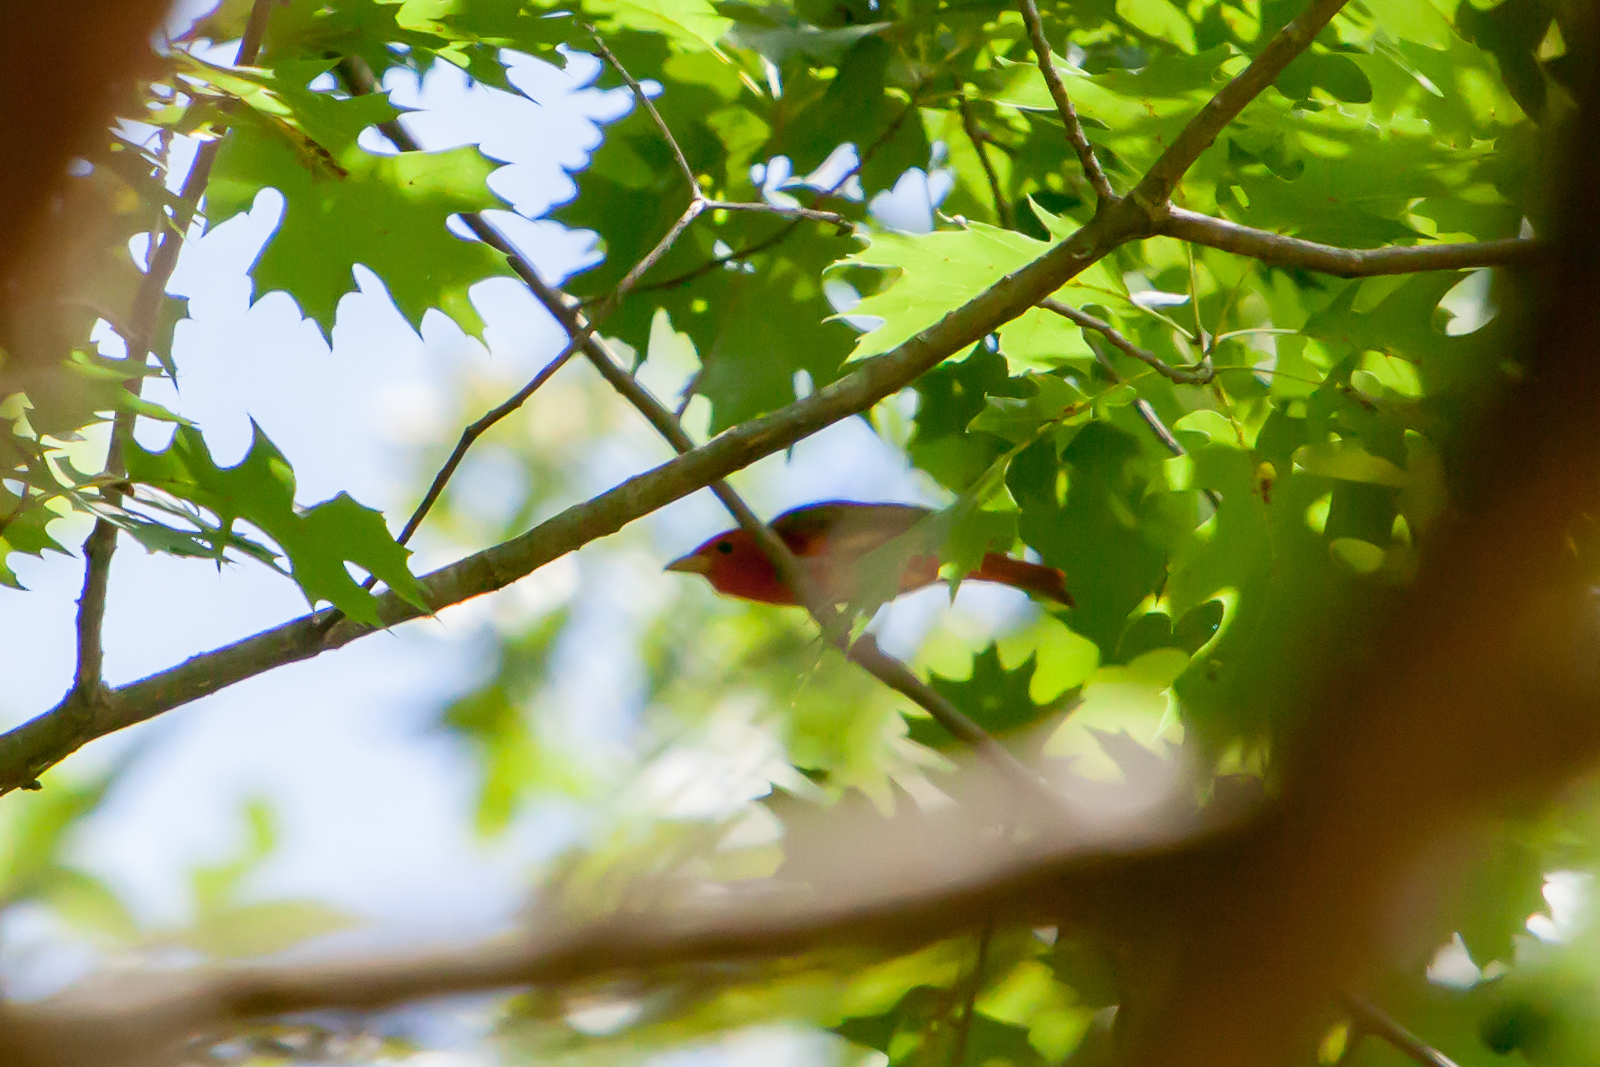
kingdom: Animalia
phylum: Chordata
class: Aves
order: Passeriformes
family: Cardinalidae
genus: Piranga
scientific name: Piranga rubra
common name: Summer tanager
